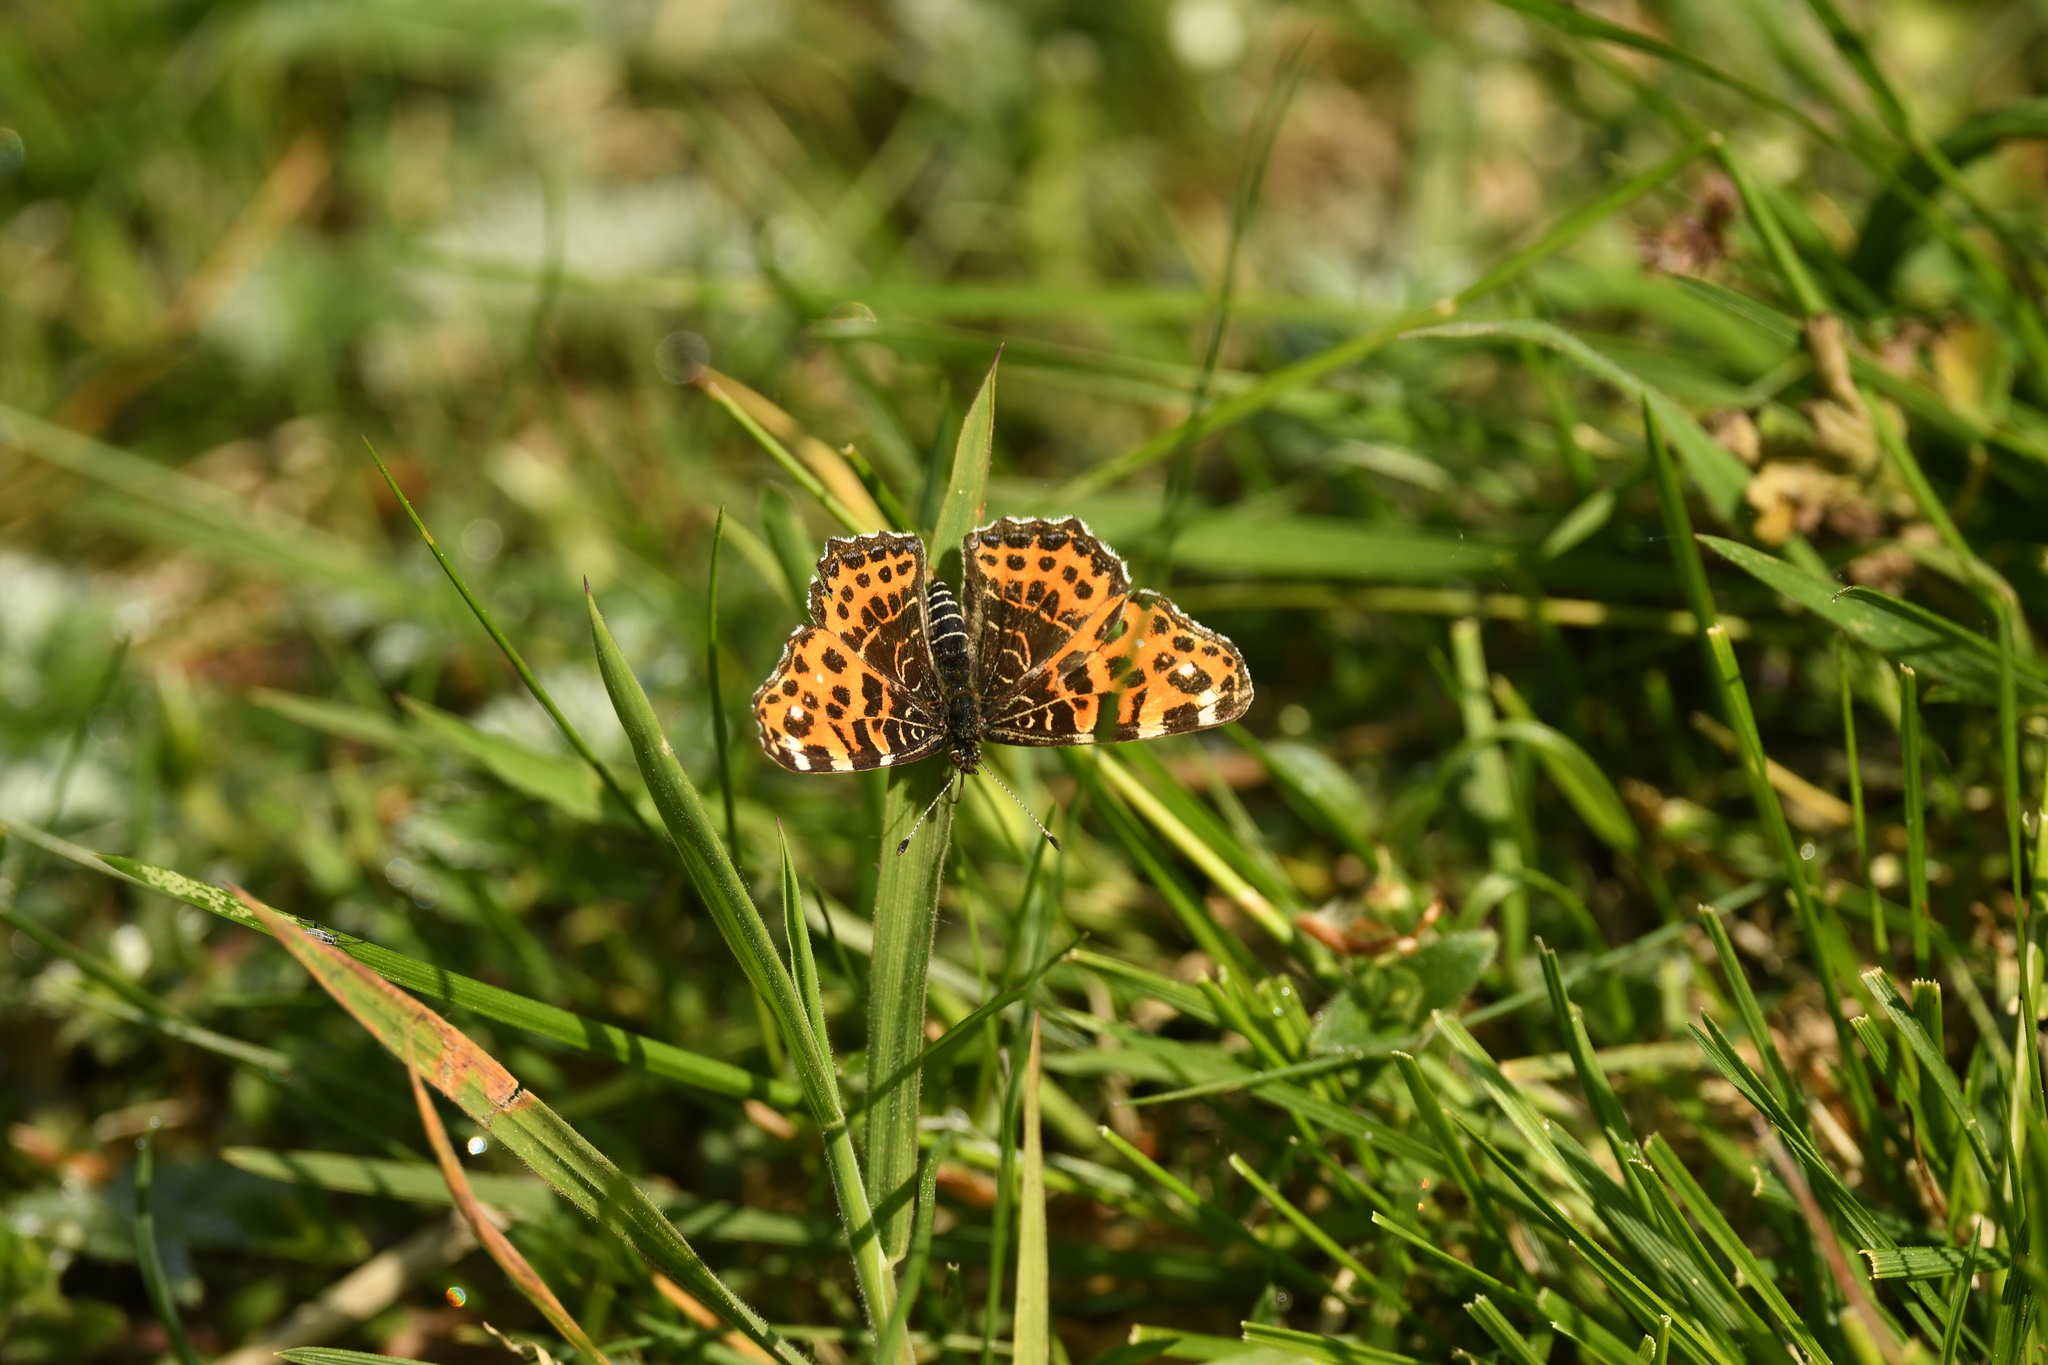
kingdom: Animalia
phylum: Arthropoda
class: Insecta
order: Lepidoptera
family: Nymphalidae
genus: Araschnia
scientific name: Araschnia levana
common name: Map butterfly
